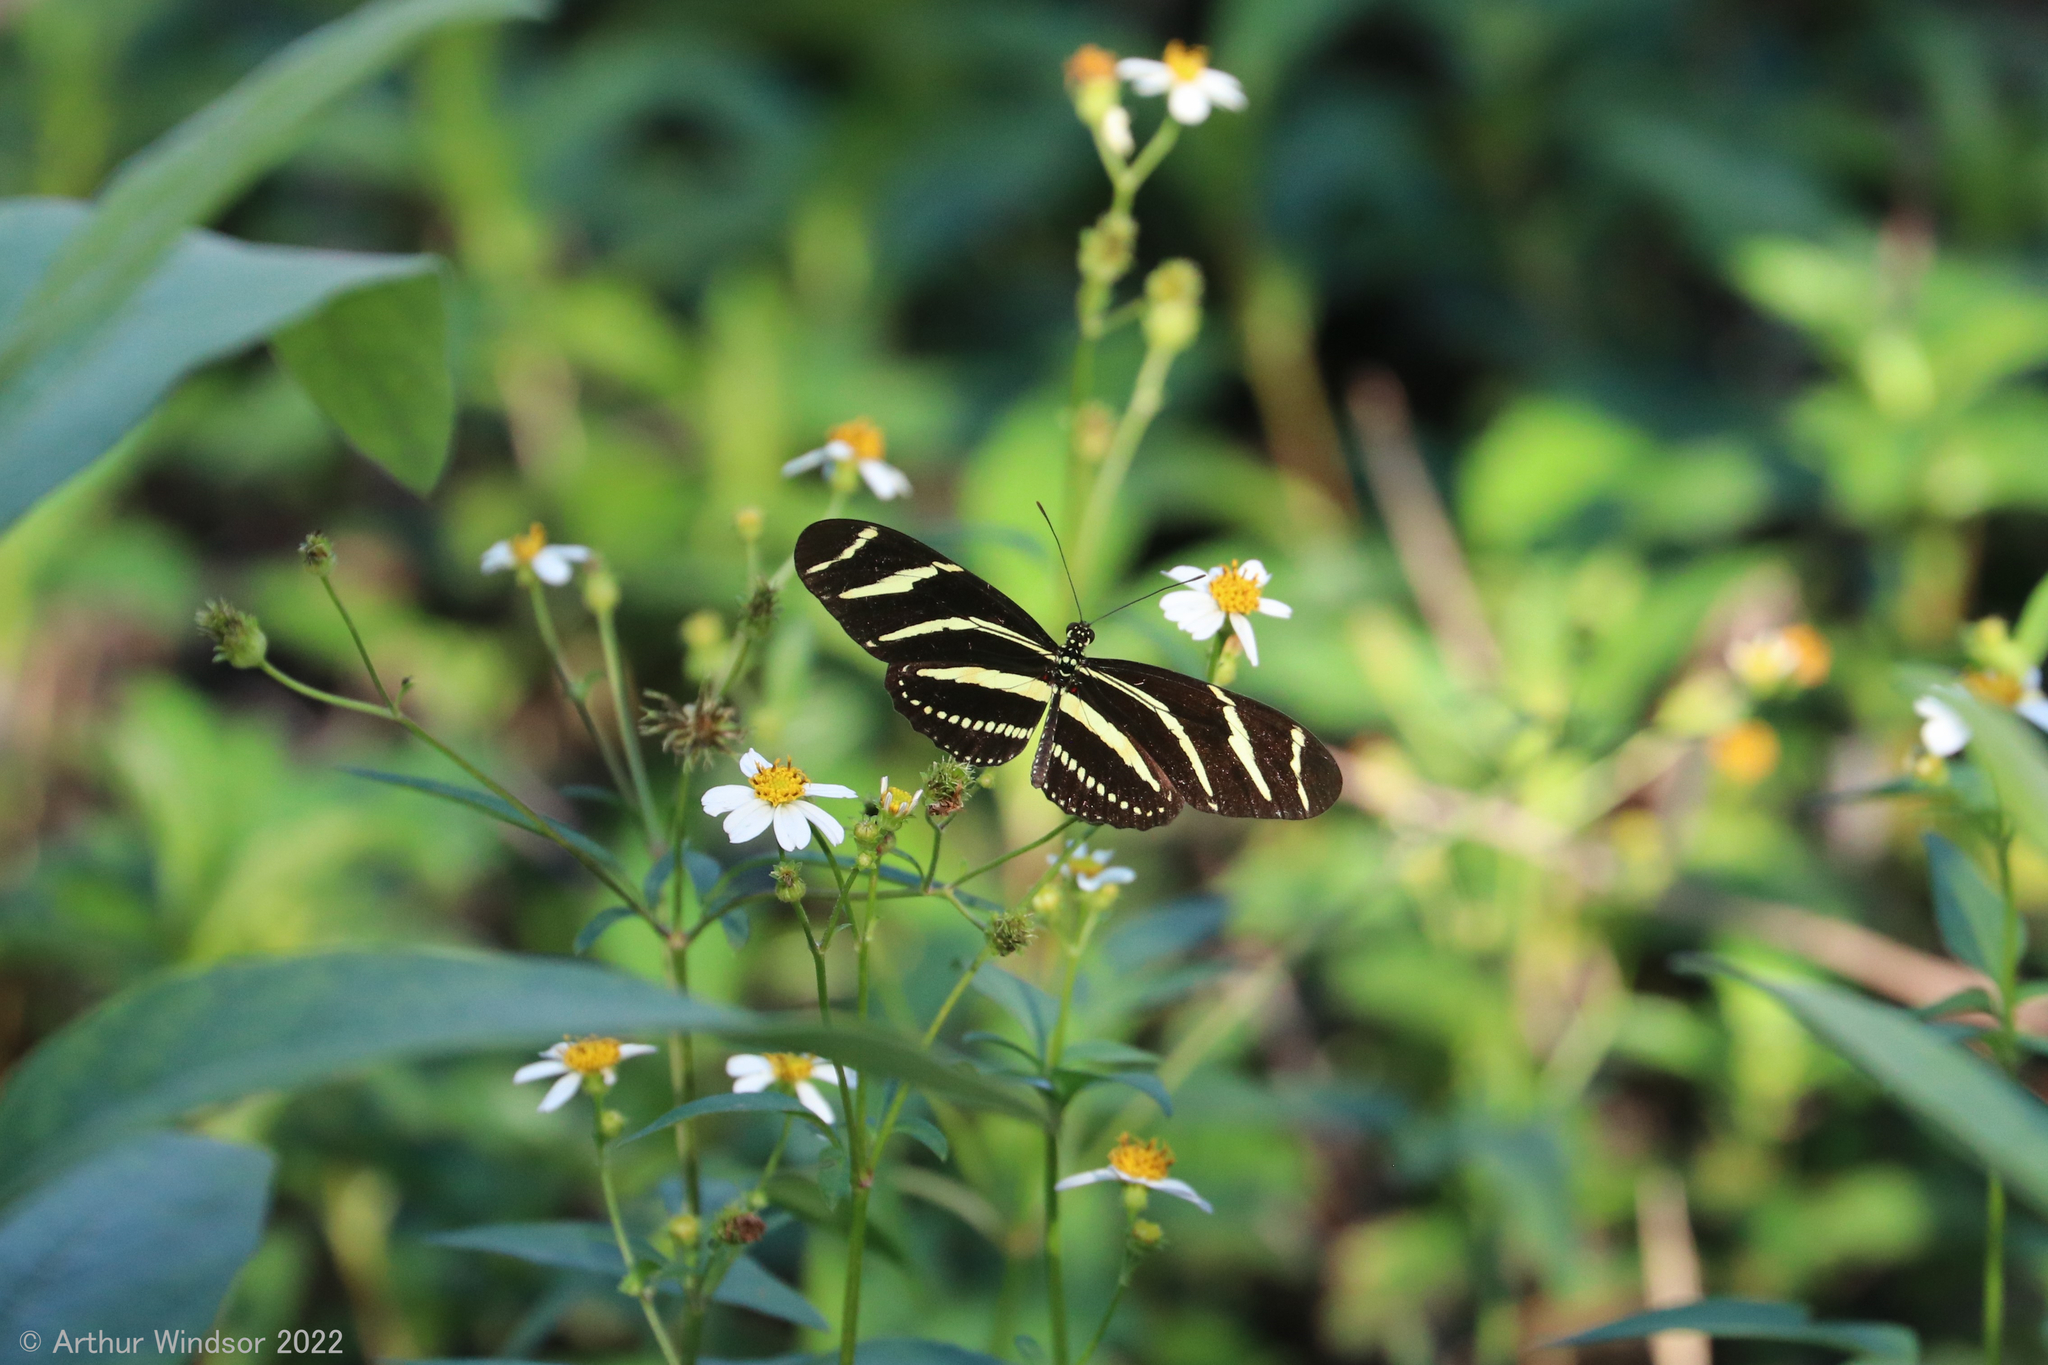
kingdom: Animalia
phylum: Arthropoda
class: Insecta
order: Lepidoptera
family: Nymphalidae
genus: Heliconius
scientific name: Heliconius charithonia
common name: Zebra long wing
